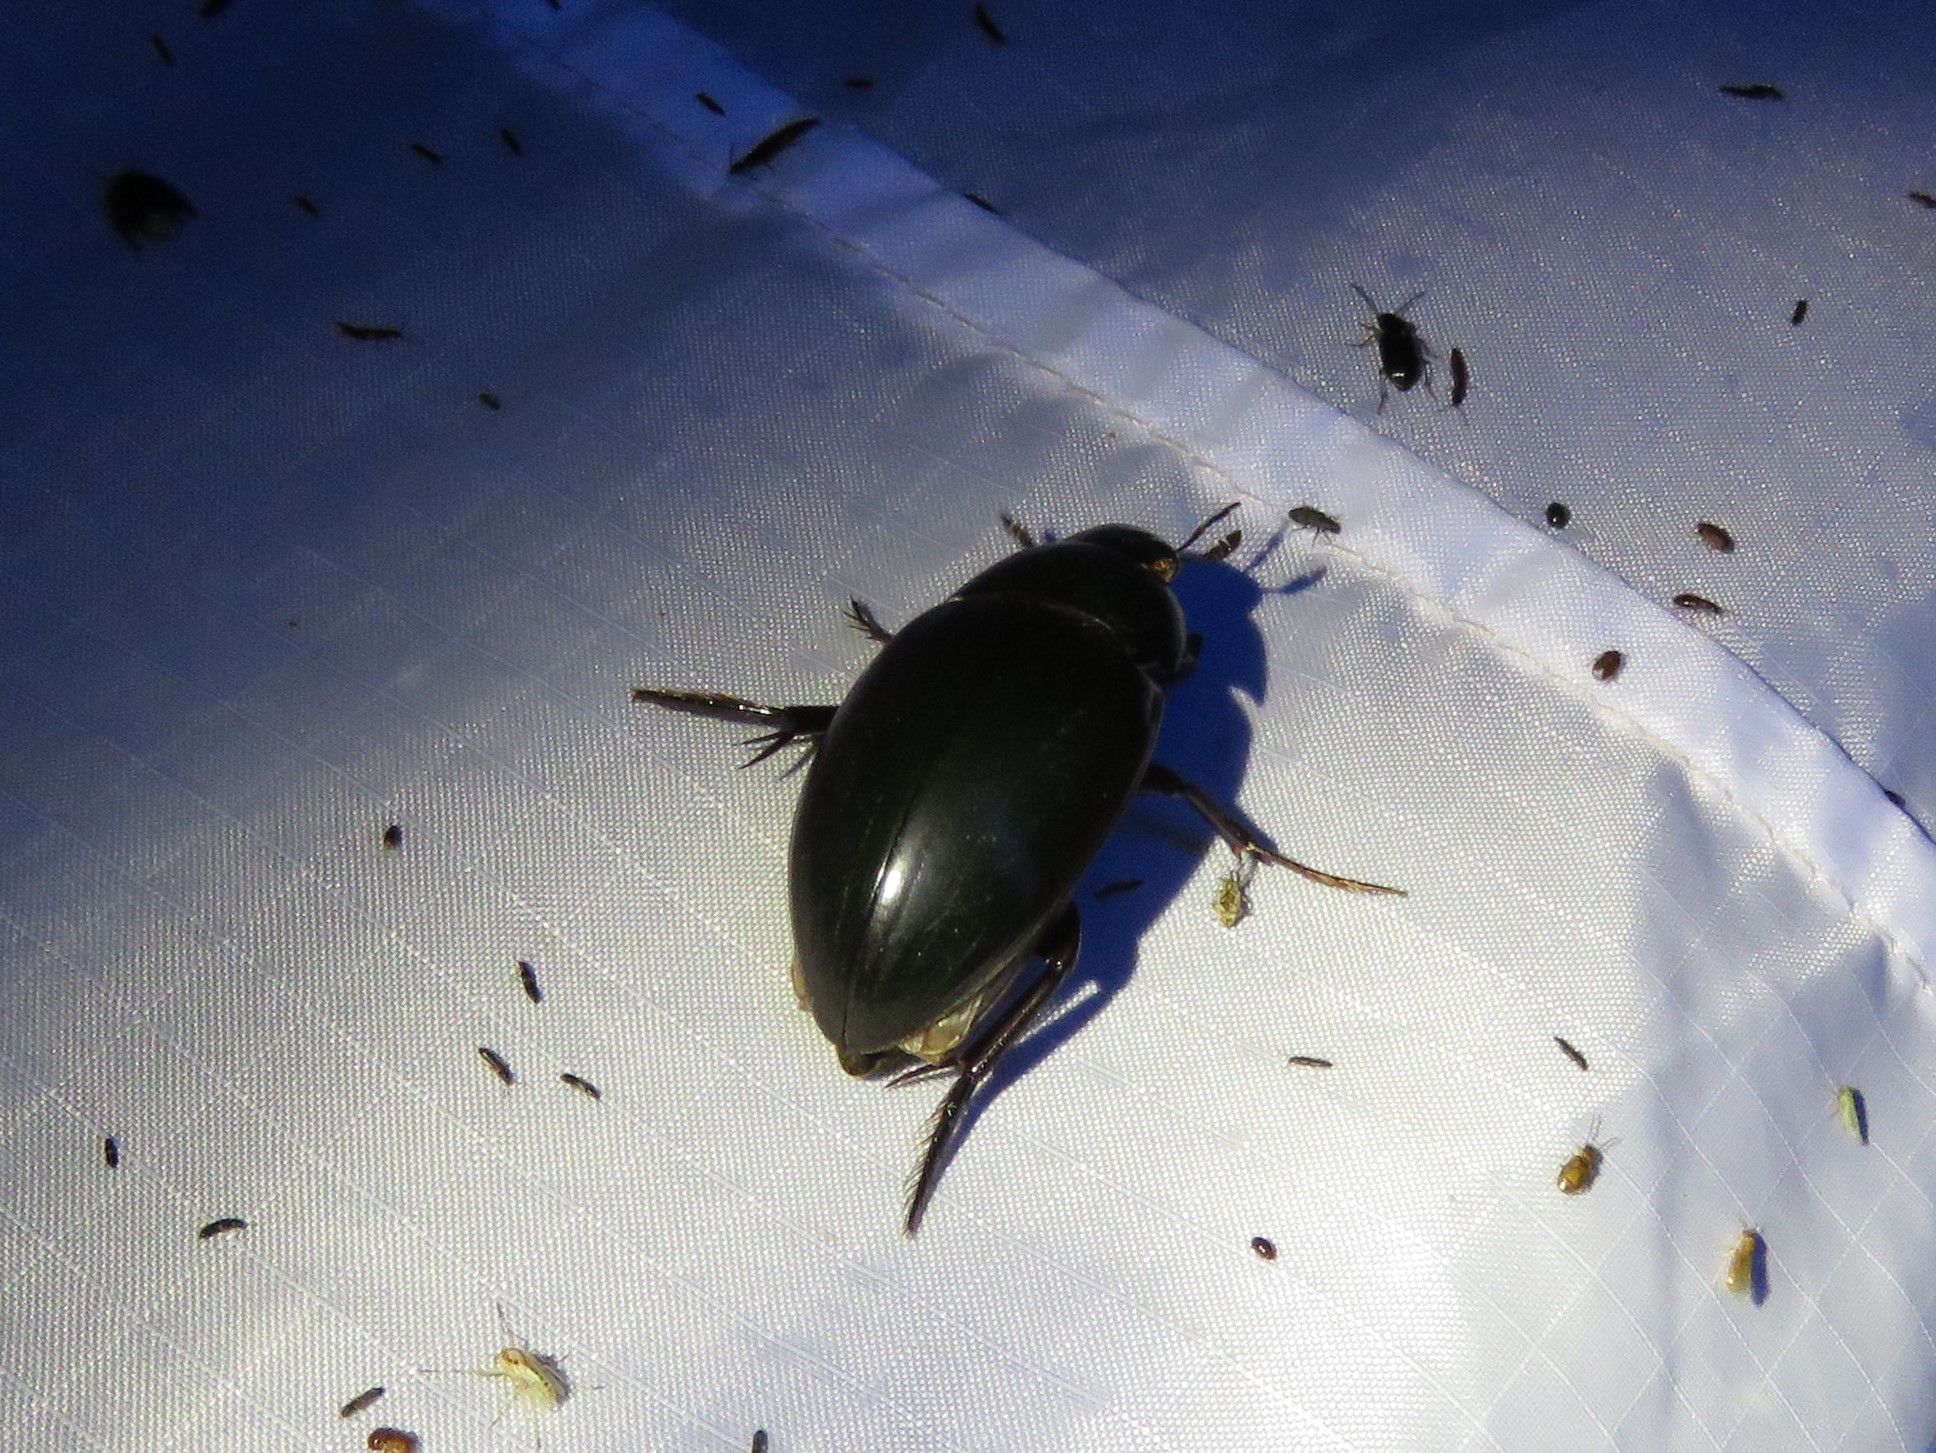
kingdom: Animalia
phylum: Arthropoda
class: Insecta
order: Coleoptera
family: Hydrophilidae
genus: Hydrophilus
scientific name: Hydrophilus triangularis
